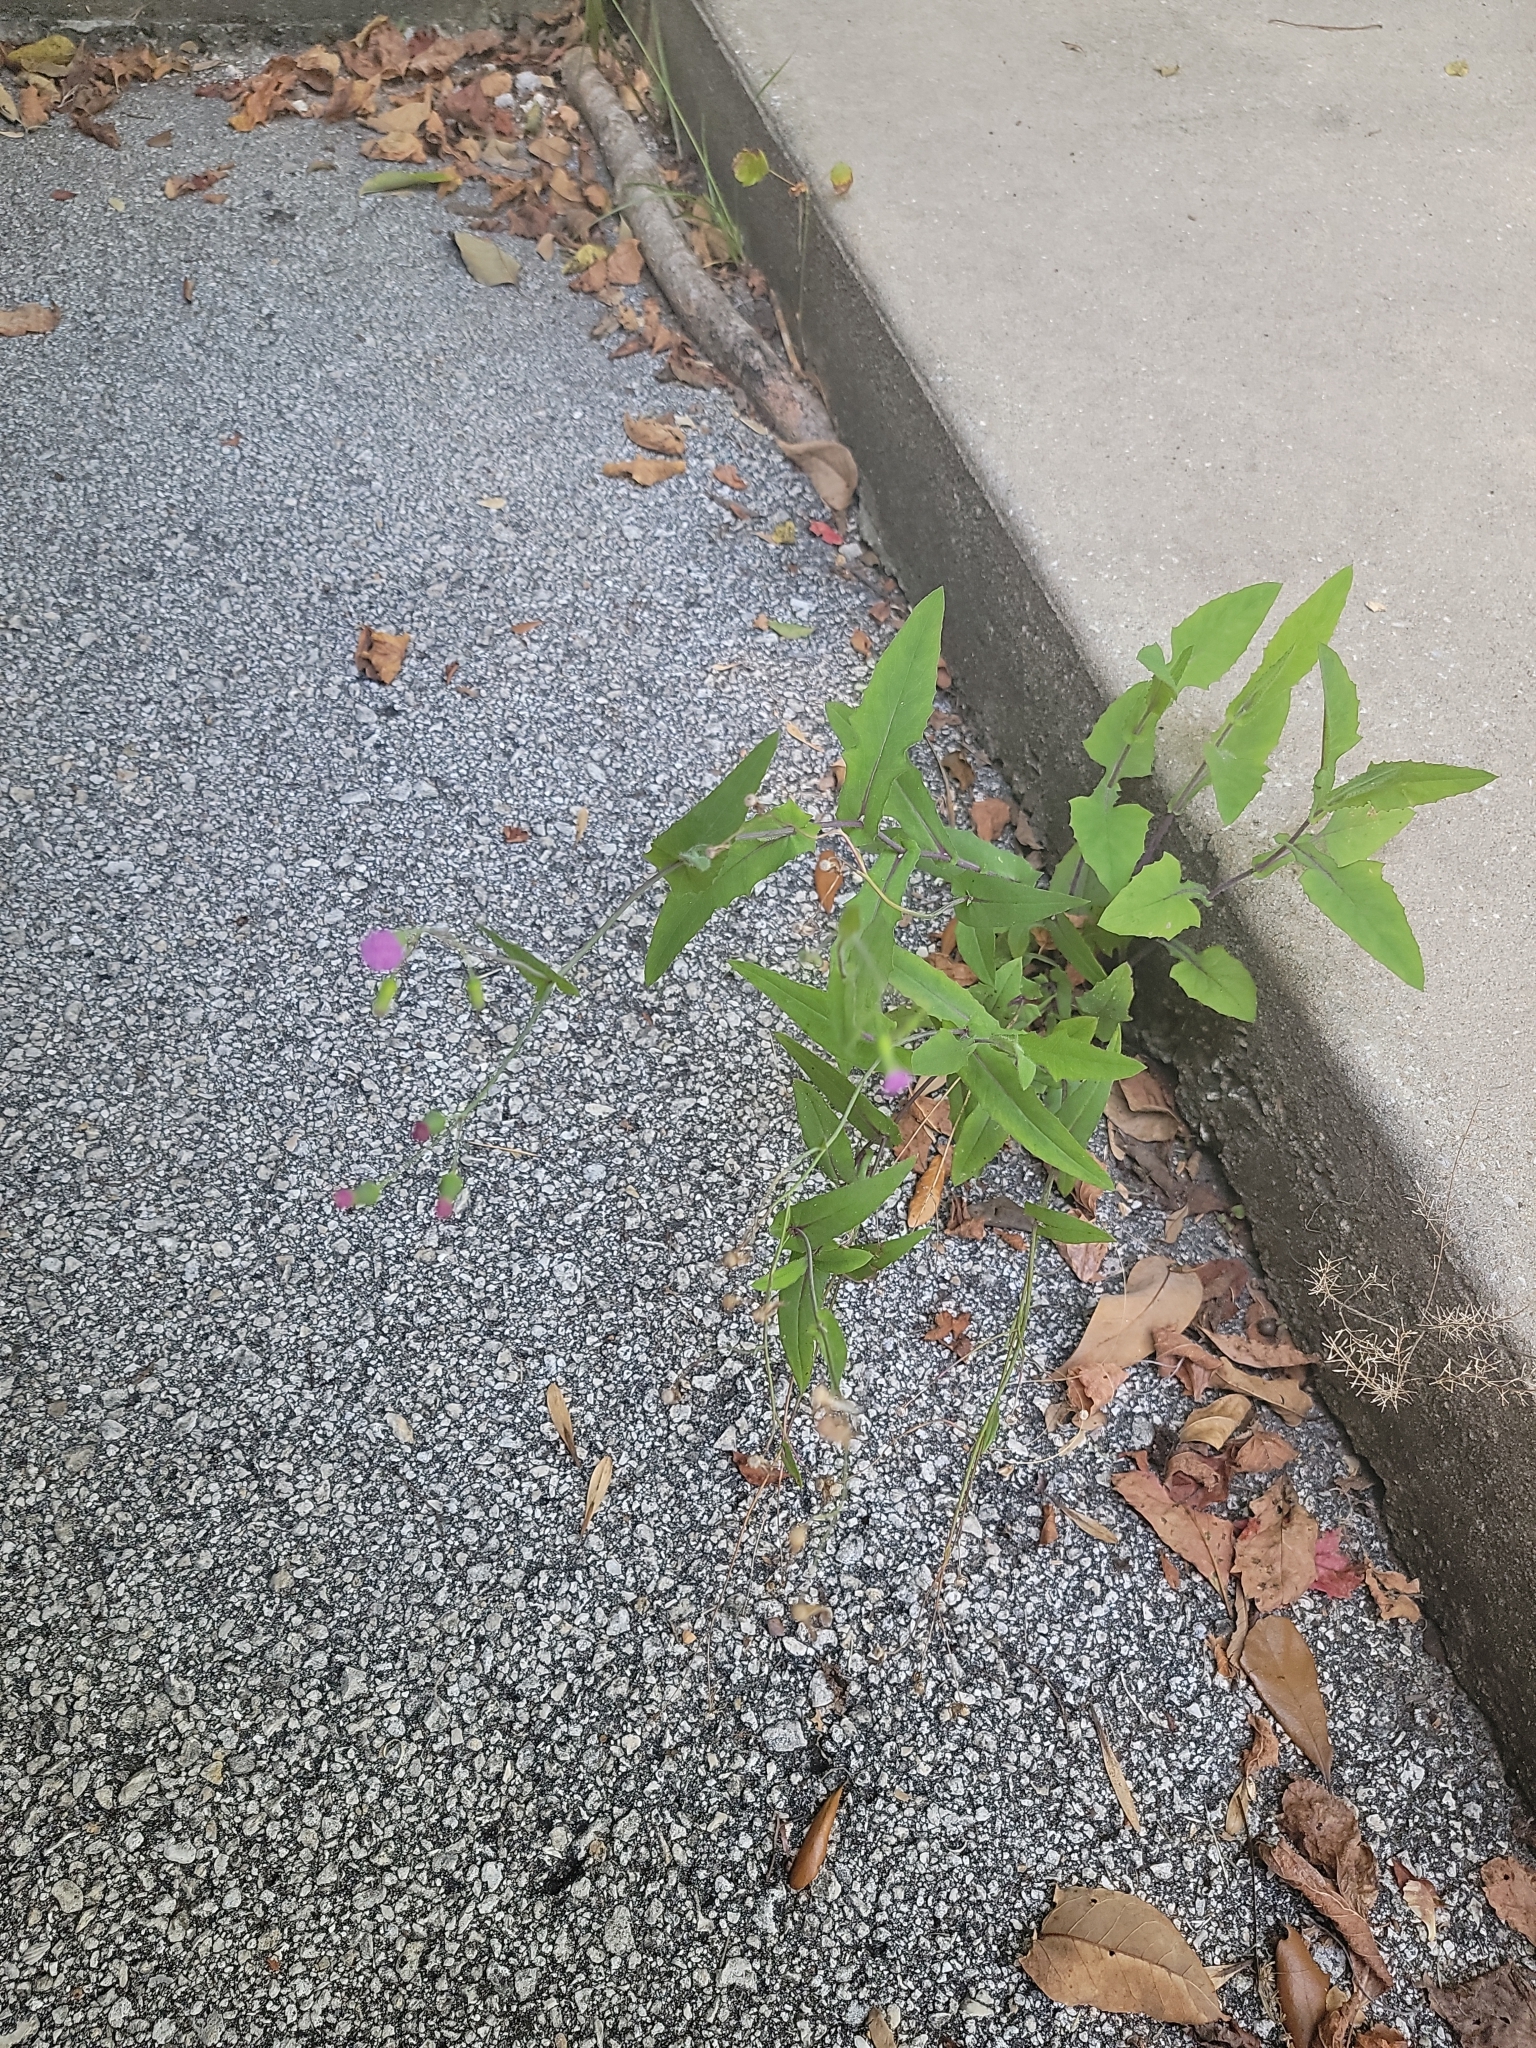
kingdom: Plantae
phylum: Tracheophyta
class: Magnoliopsida
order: Asterales
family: Asteraceae
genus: Emilia
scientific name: Emilia sonchifolia
